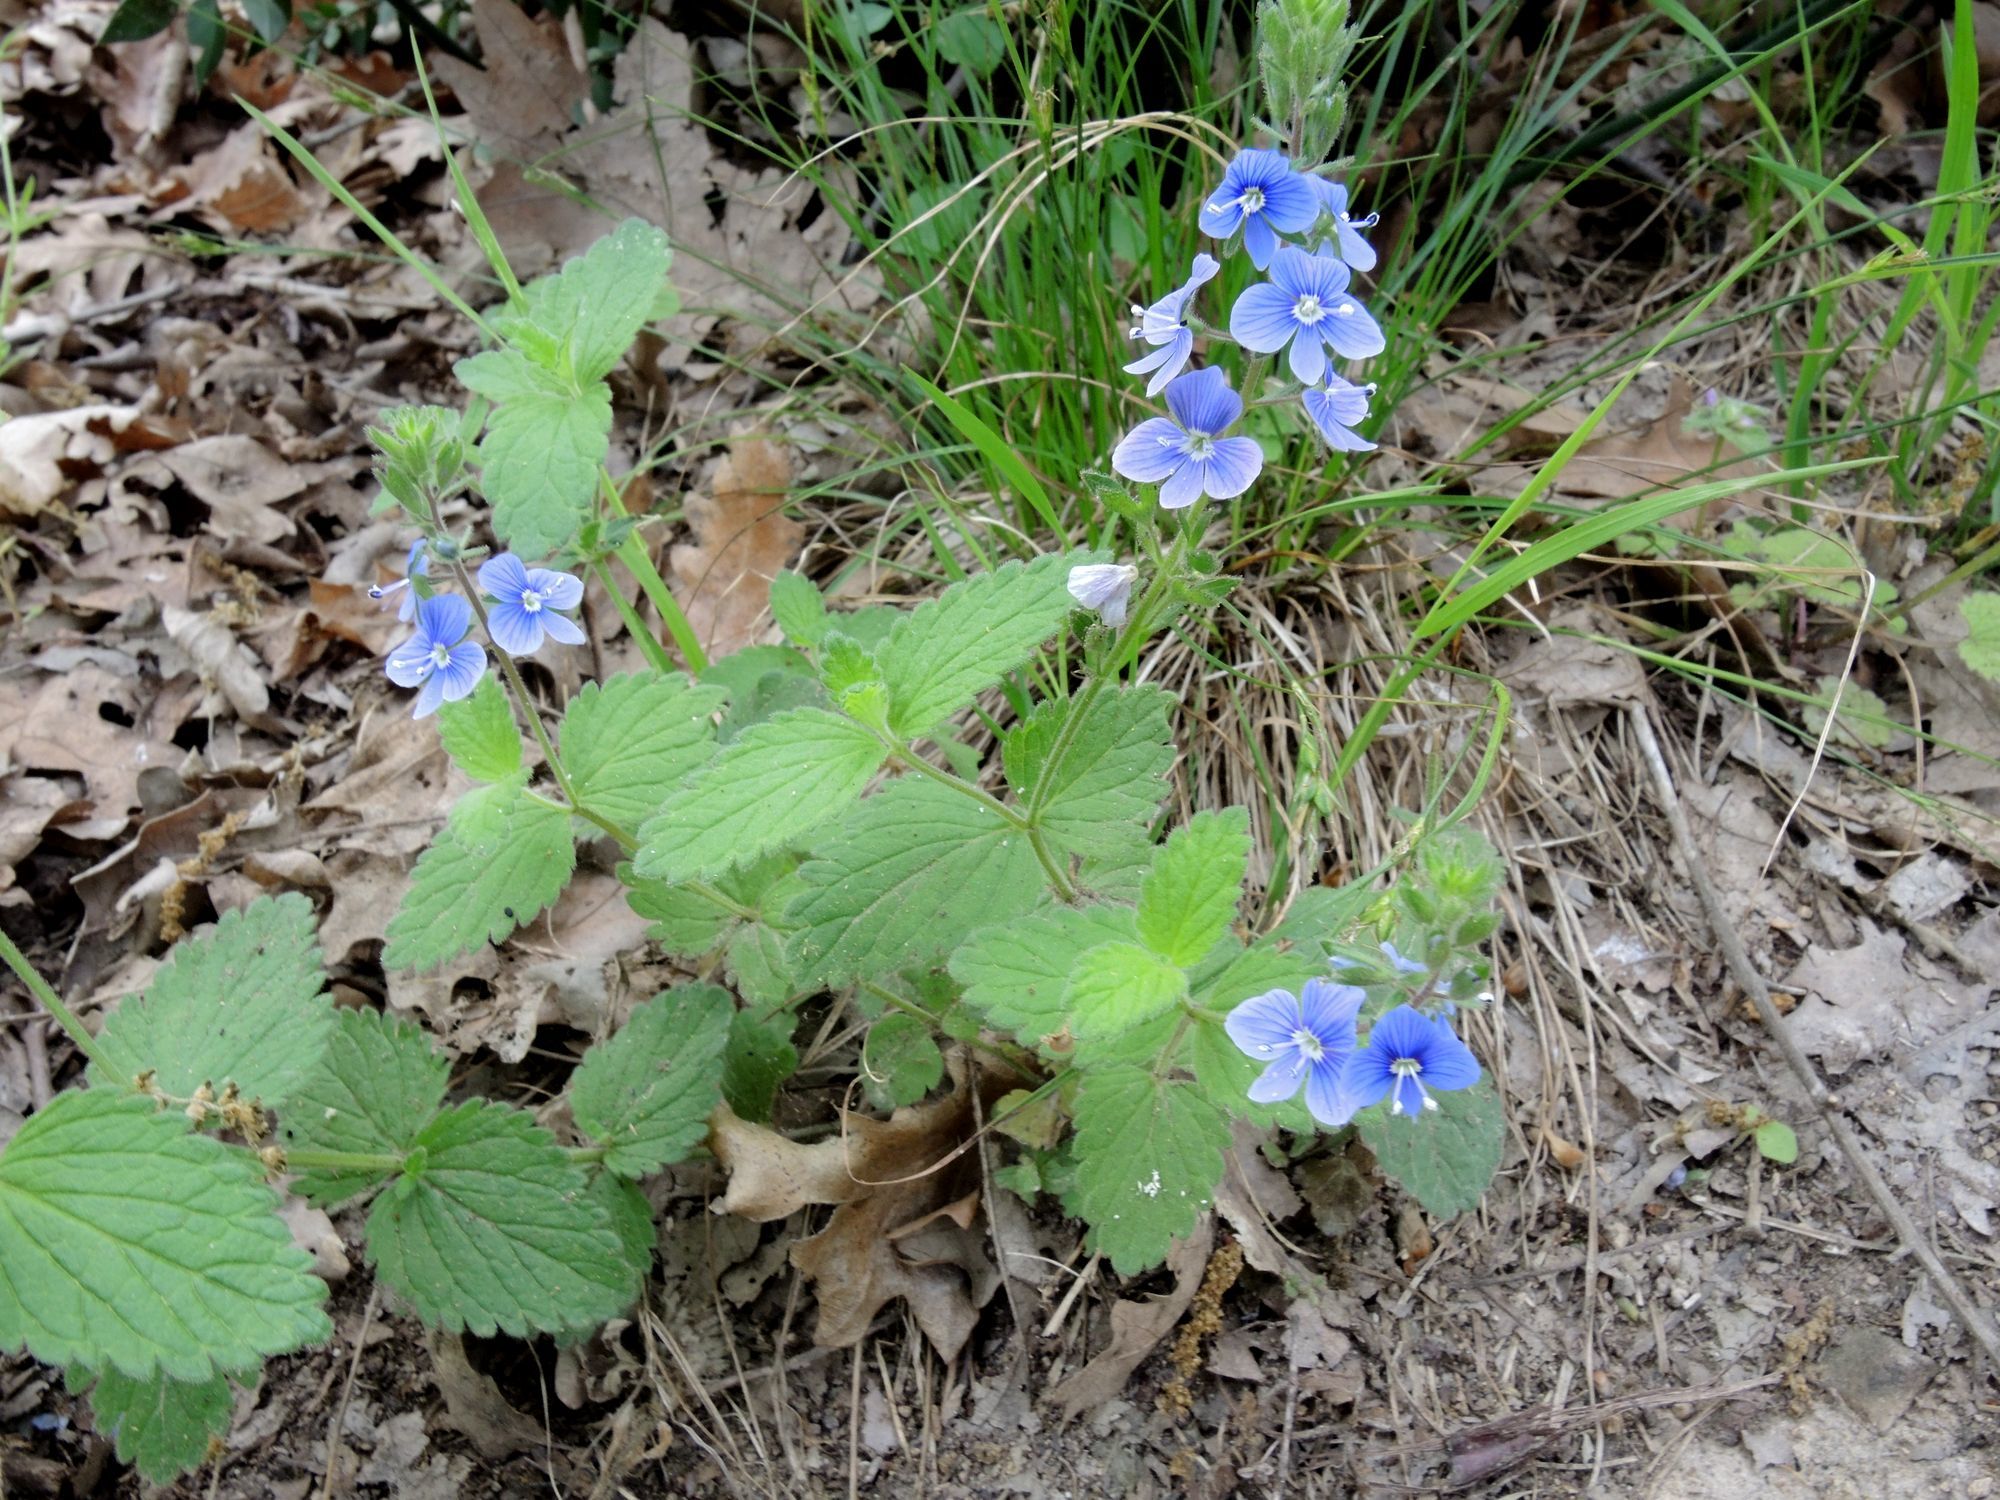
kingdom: Plantae
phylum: Tracheophyta
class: Magnoliopsida
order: Lamiales
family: Plantaginaceae
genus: Veronica
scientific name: Veronica chamaedrys
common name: Germander speedwell
